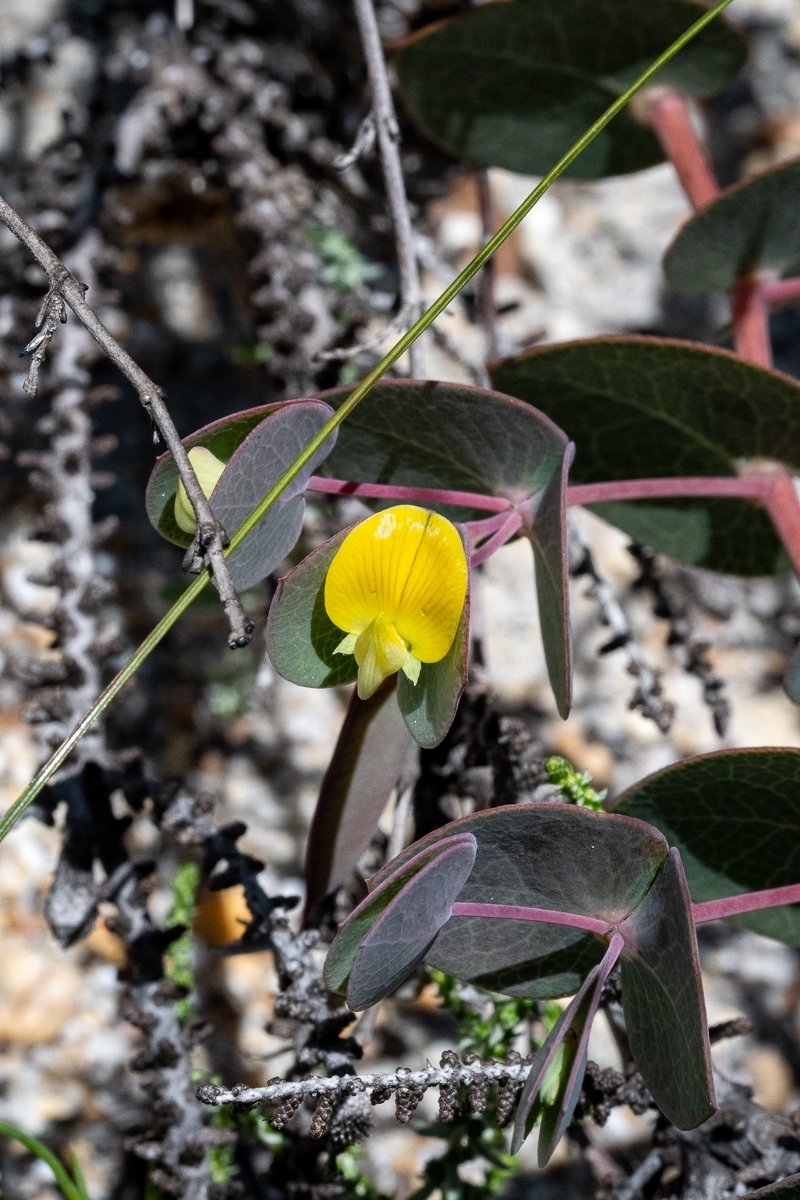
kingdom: Plantae
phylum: Tracheophyta
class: Magnoliopsida
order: Fabales
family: Fabaceae
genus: Rafnia
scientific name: Rafnia acuminata
